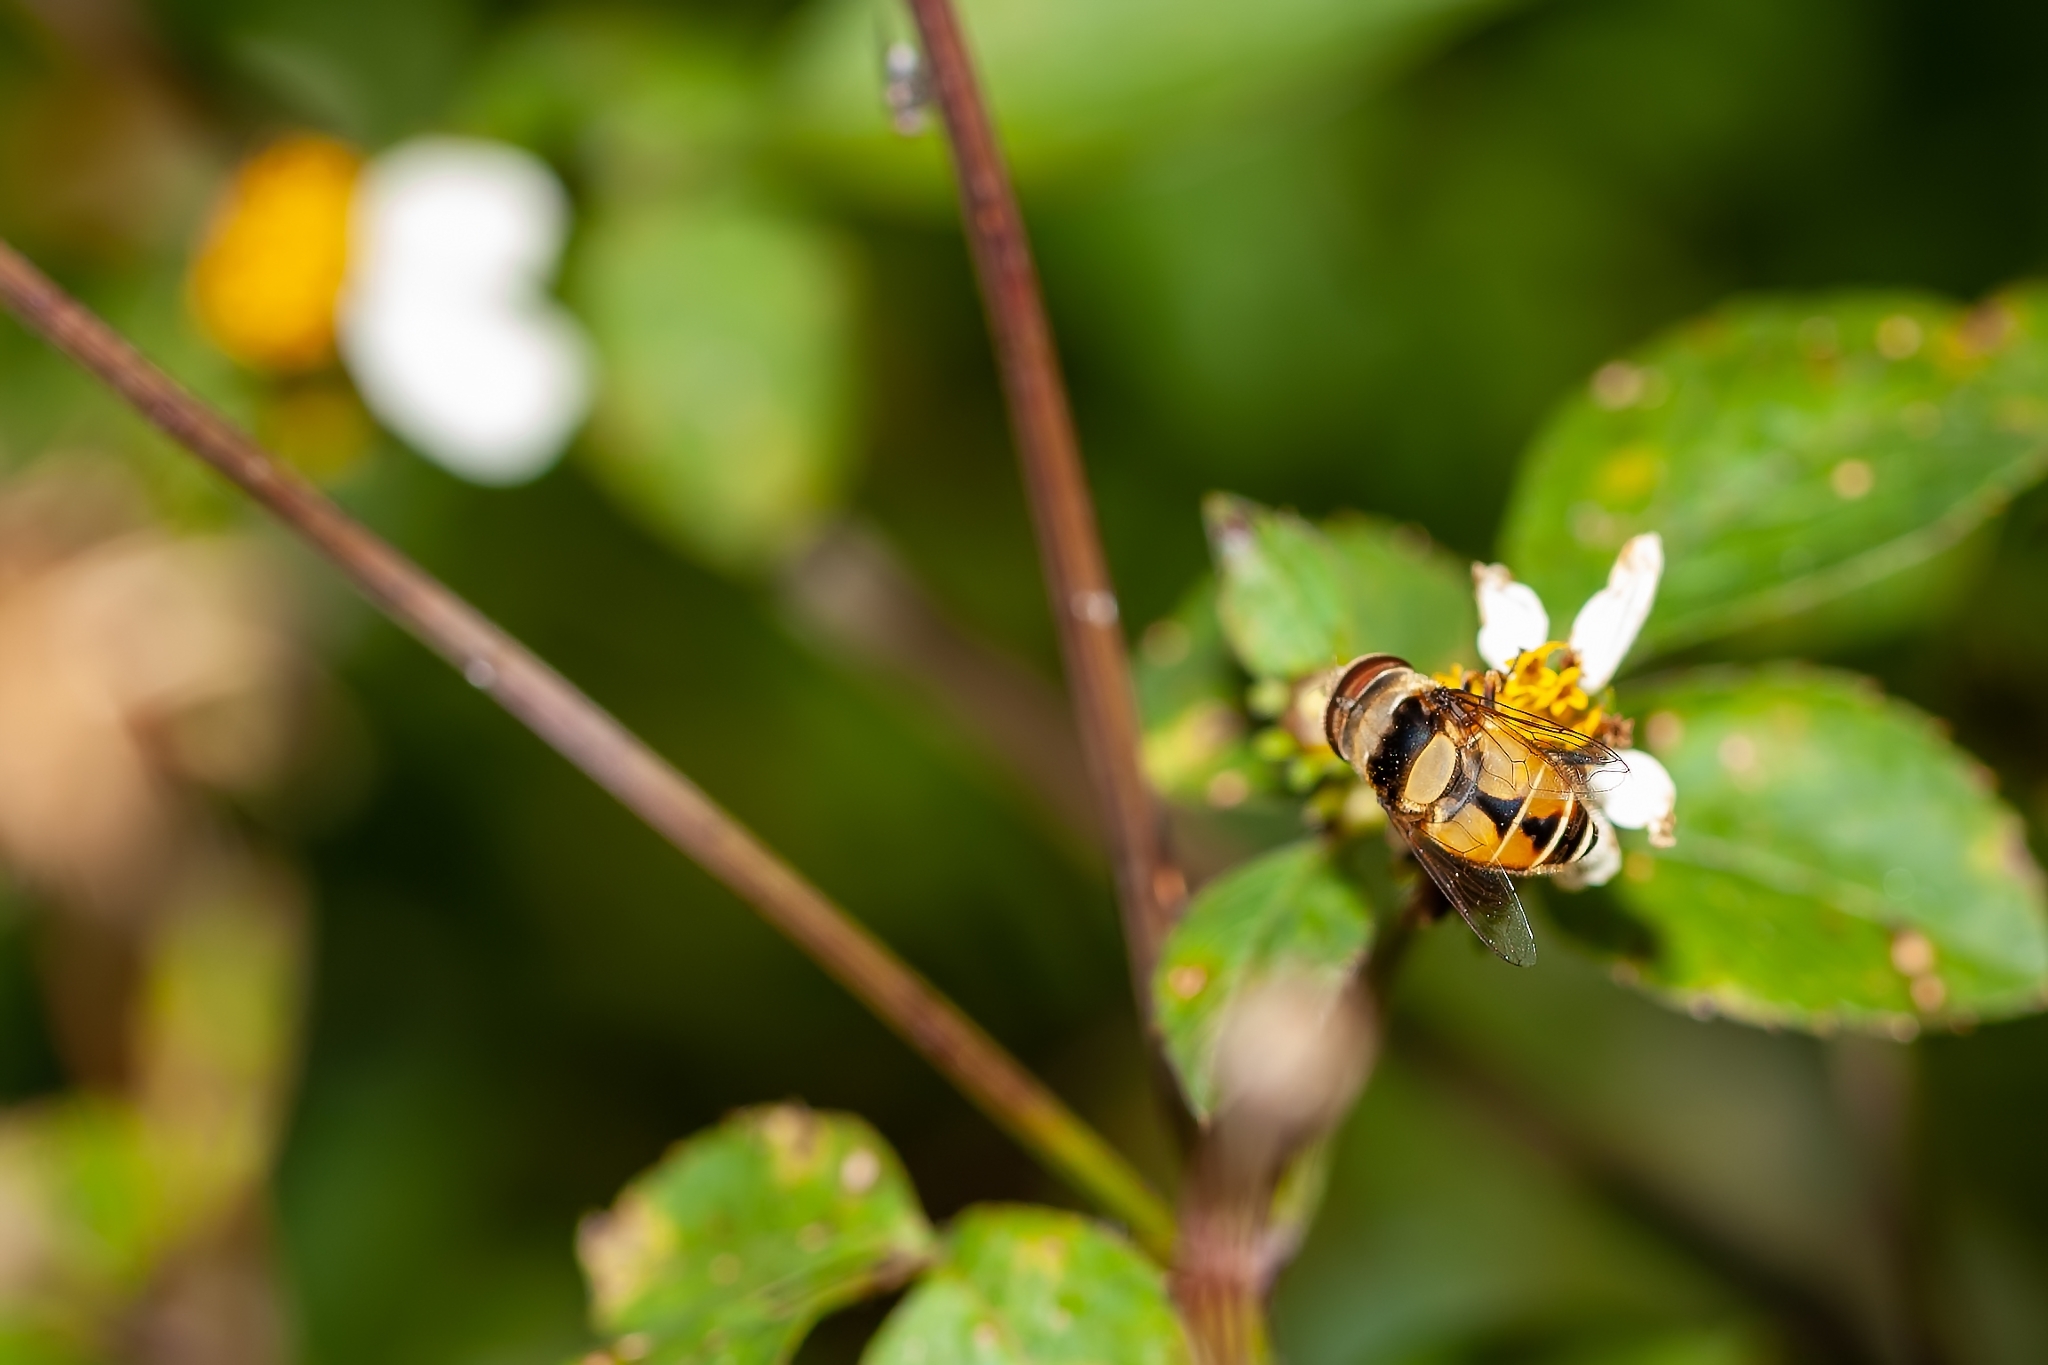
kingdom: Animalia
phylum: Arthropoda
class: Insecta
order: Diptera
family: Syrphidae
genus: Palpada
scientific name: Palpada pusilla
